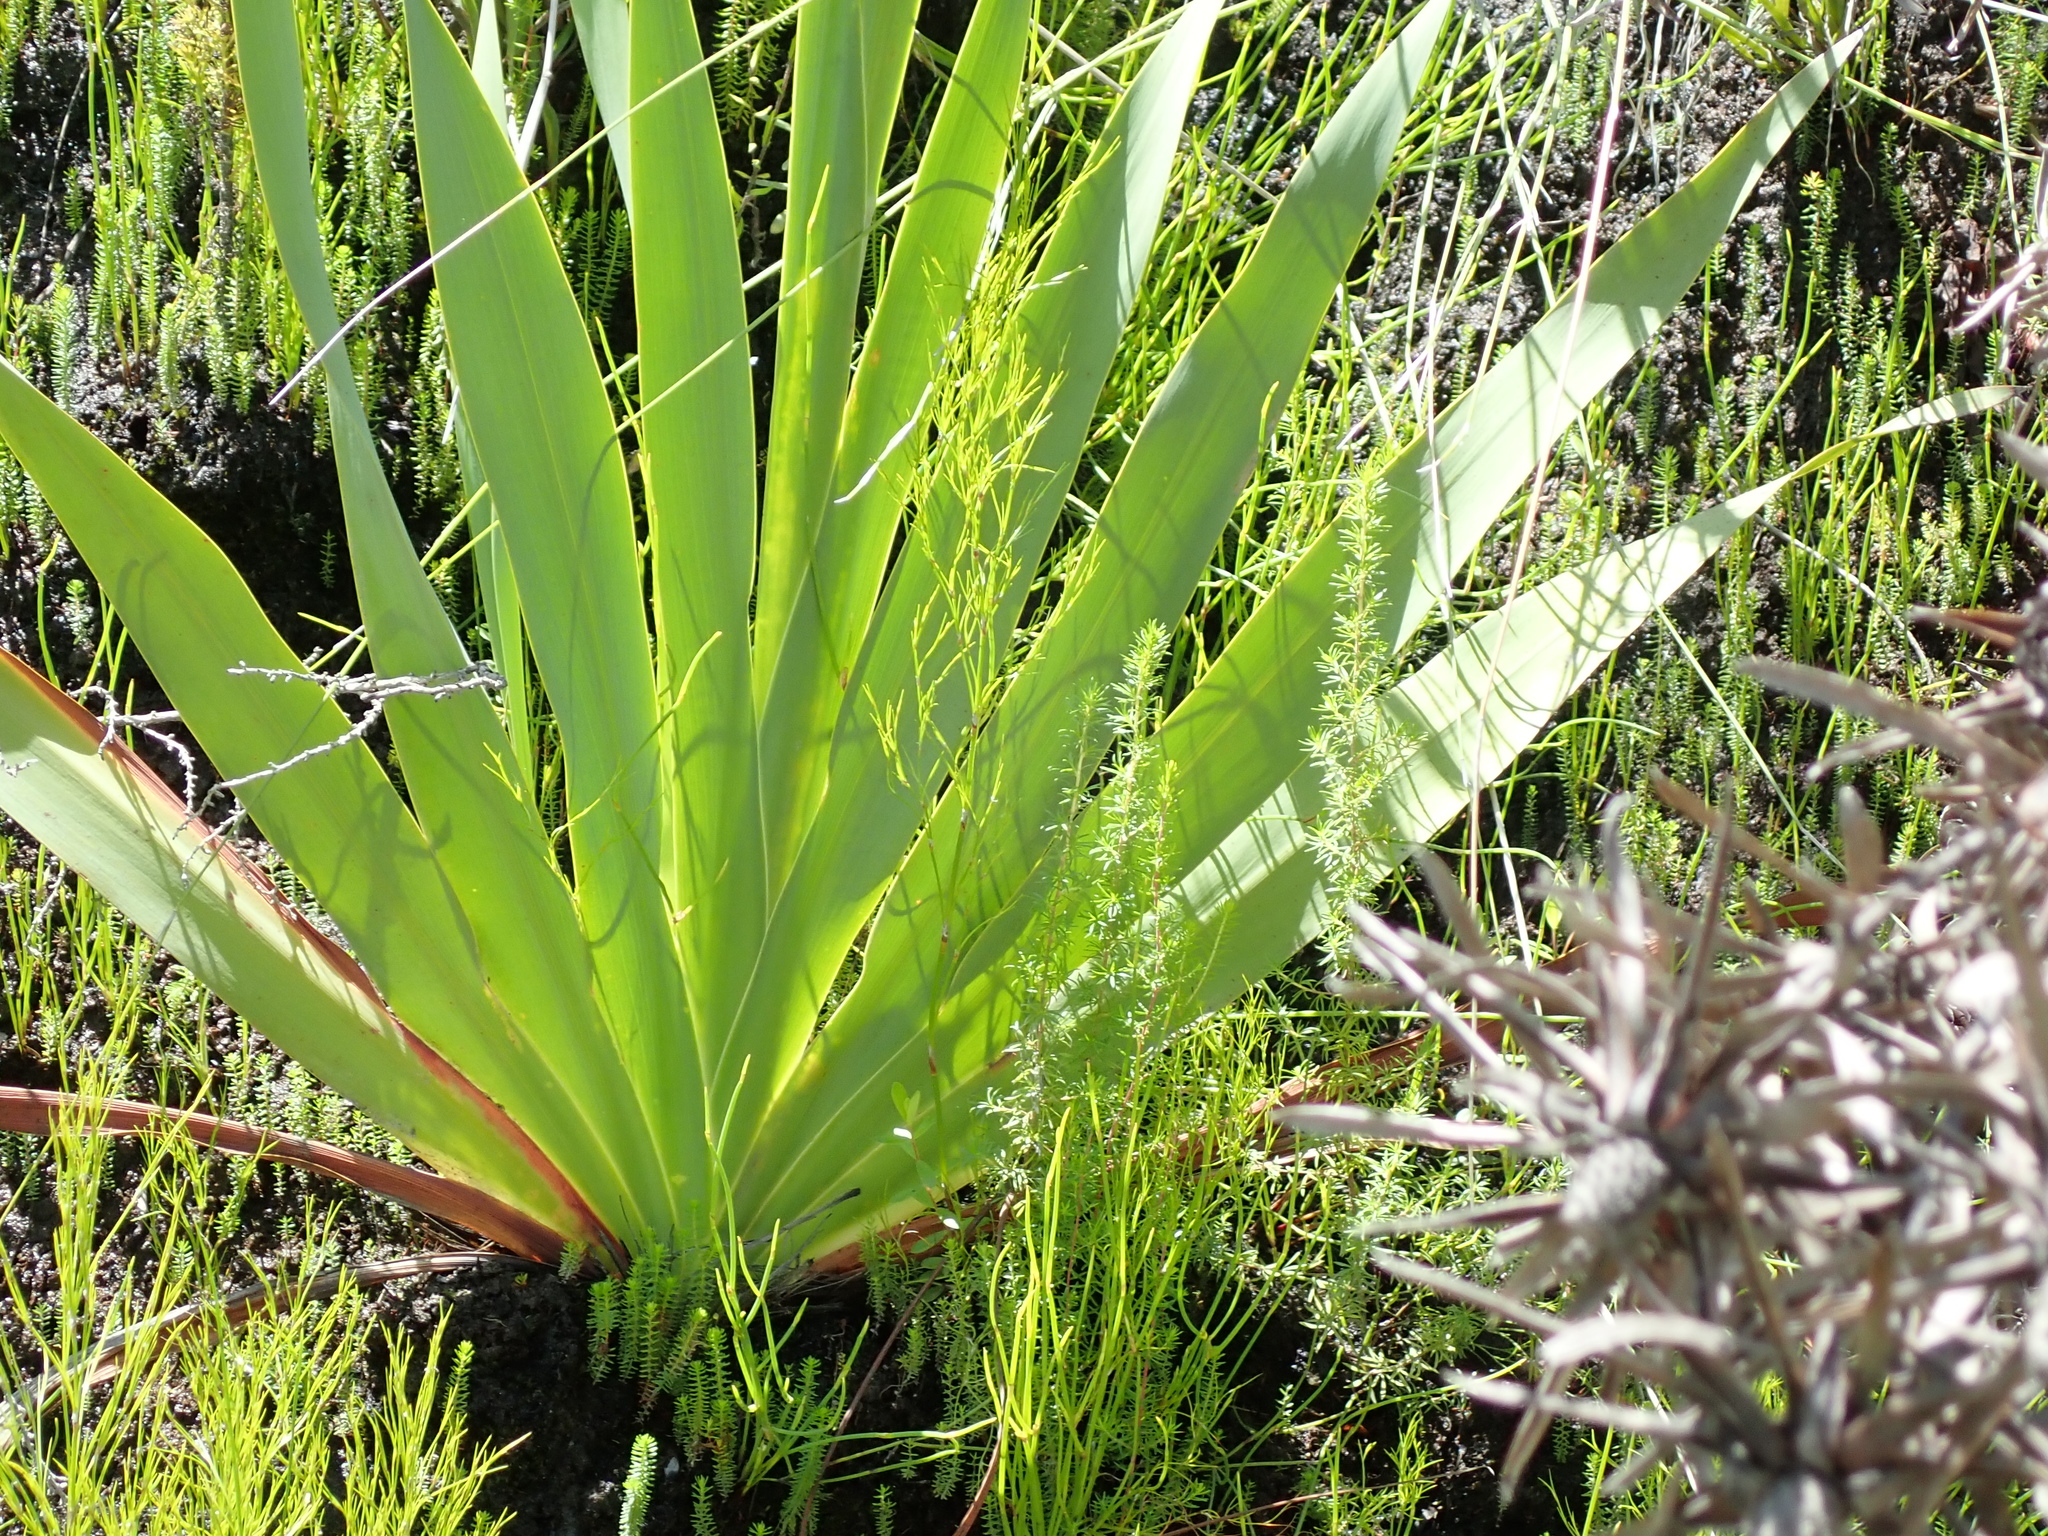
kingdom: Plantae
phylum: Tracheophyta
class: Liliopsida
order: Asparagales
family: Iridaceae
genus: Watsonia
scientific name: Watsonia knysnana
